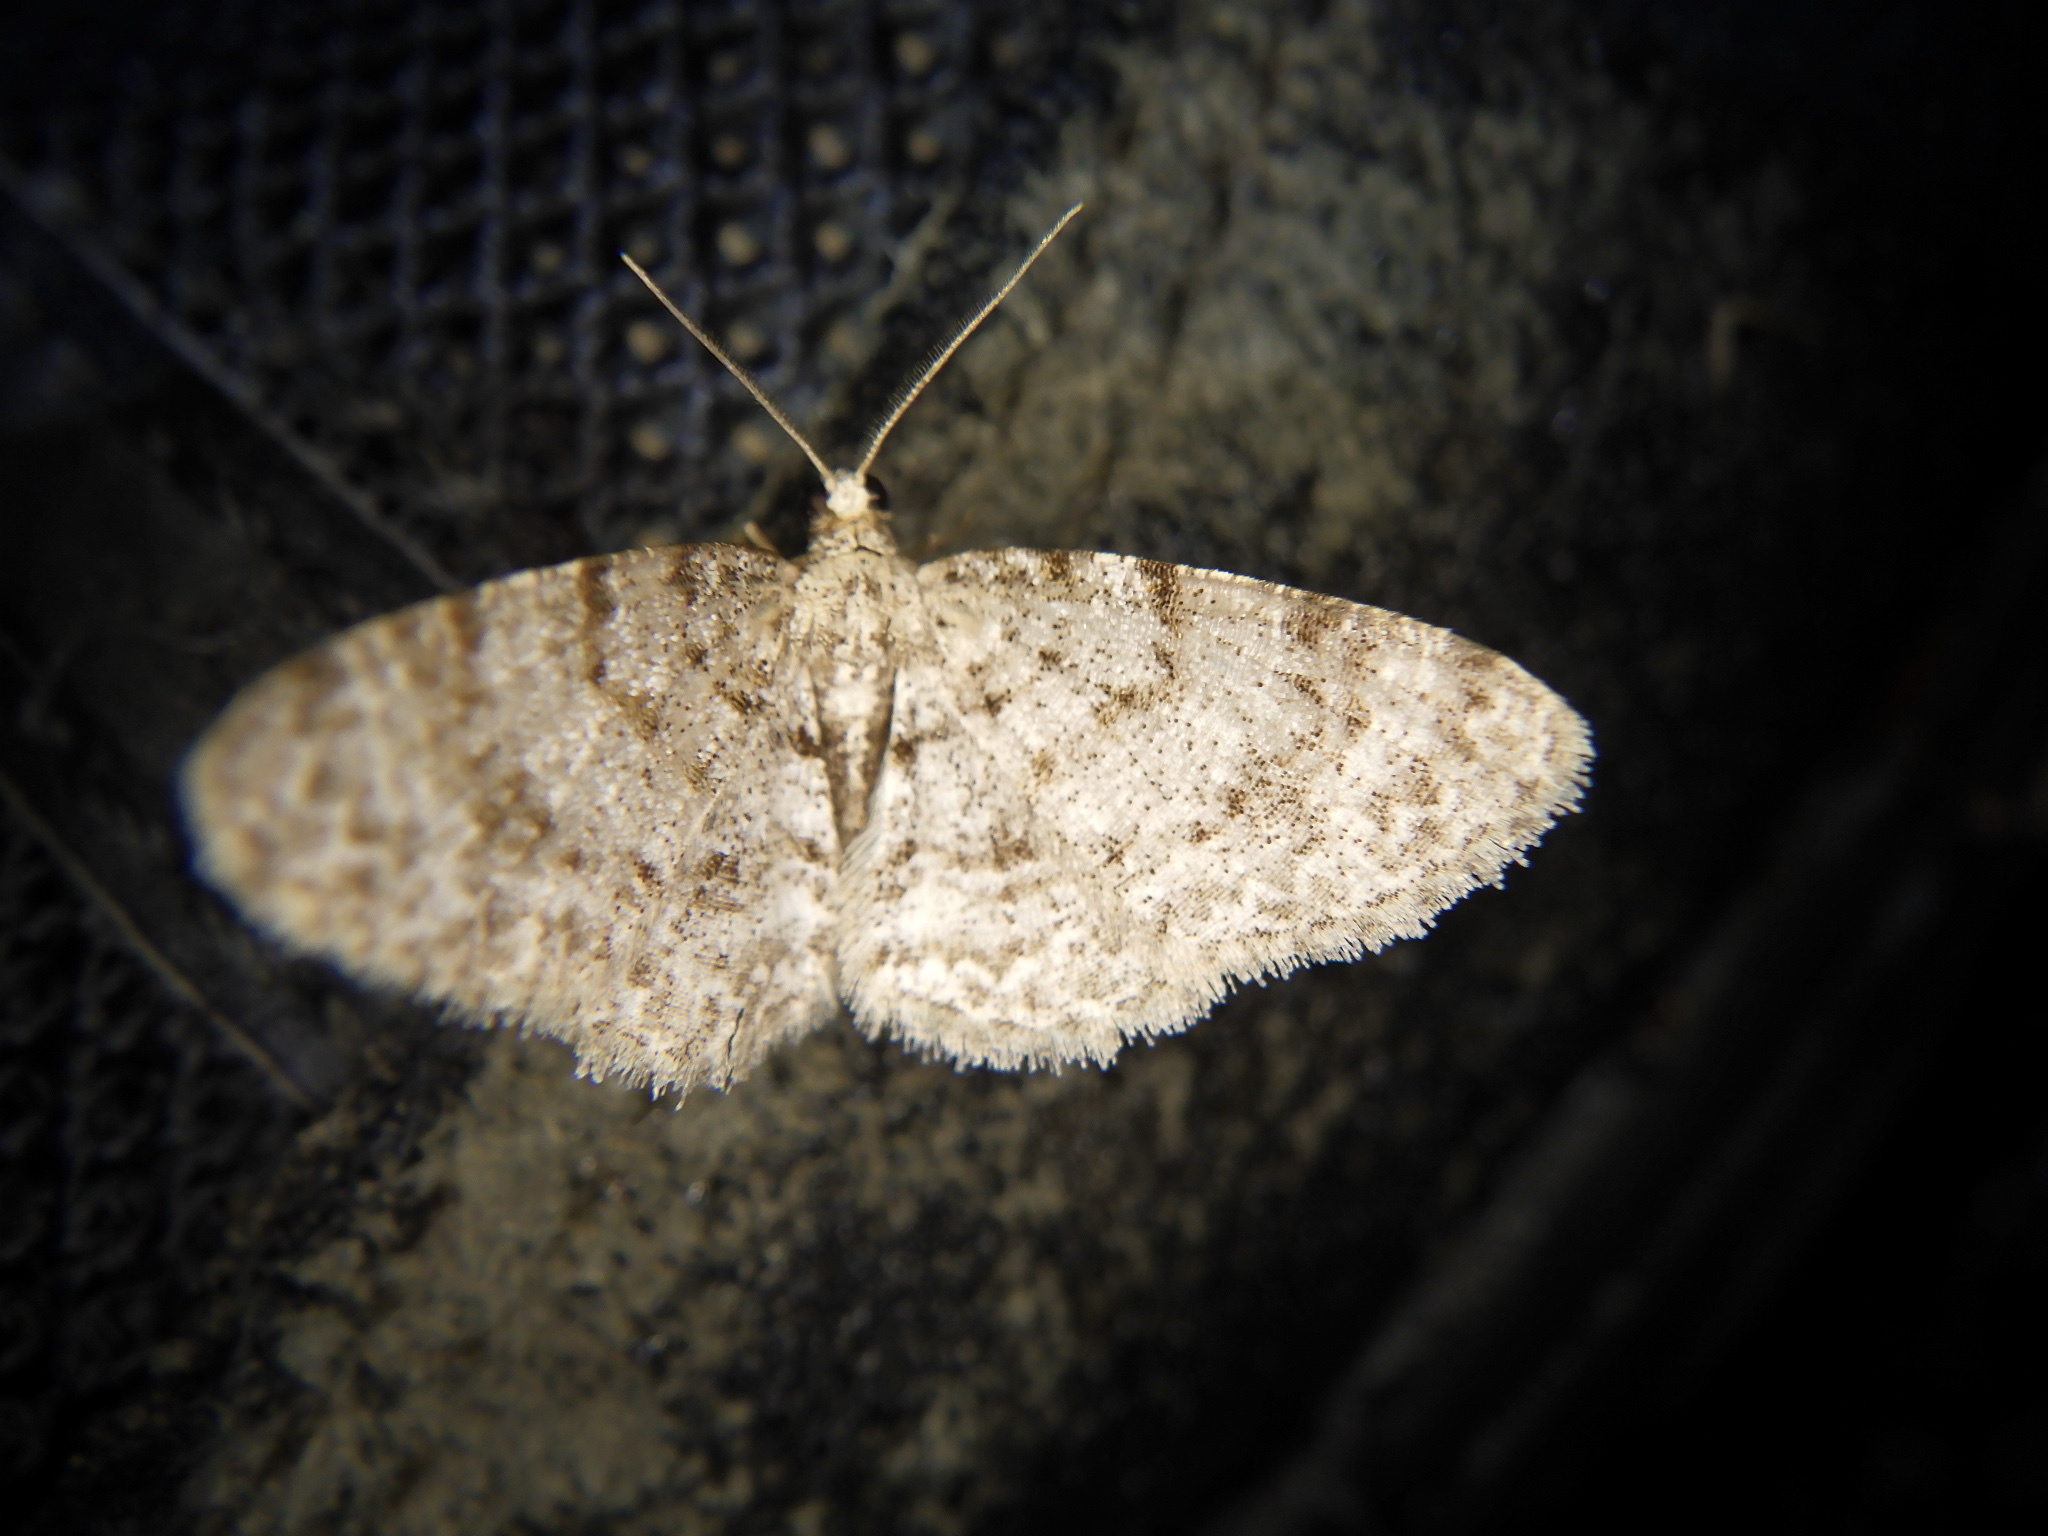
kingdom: Animalia
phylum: Arthropoda
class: Insecta
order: Lepidoptera
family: Geometridae
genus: Aethalura
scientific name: Aethalura ignobilis
